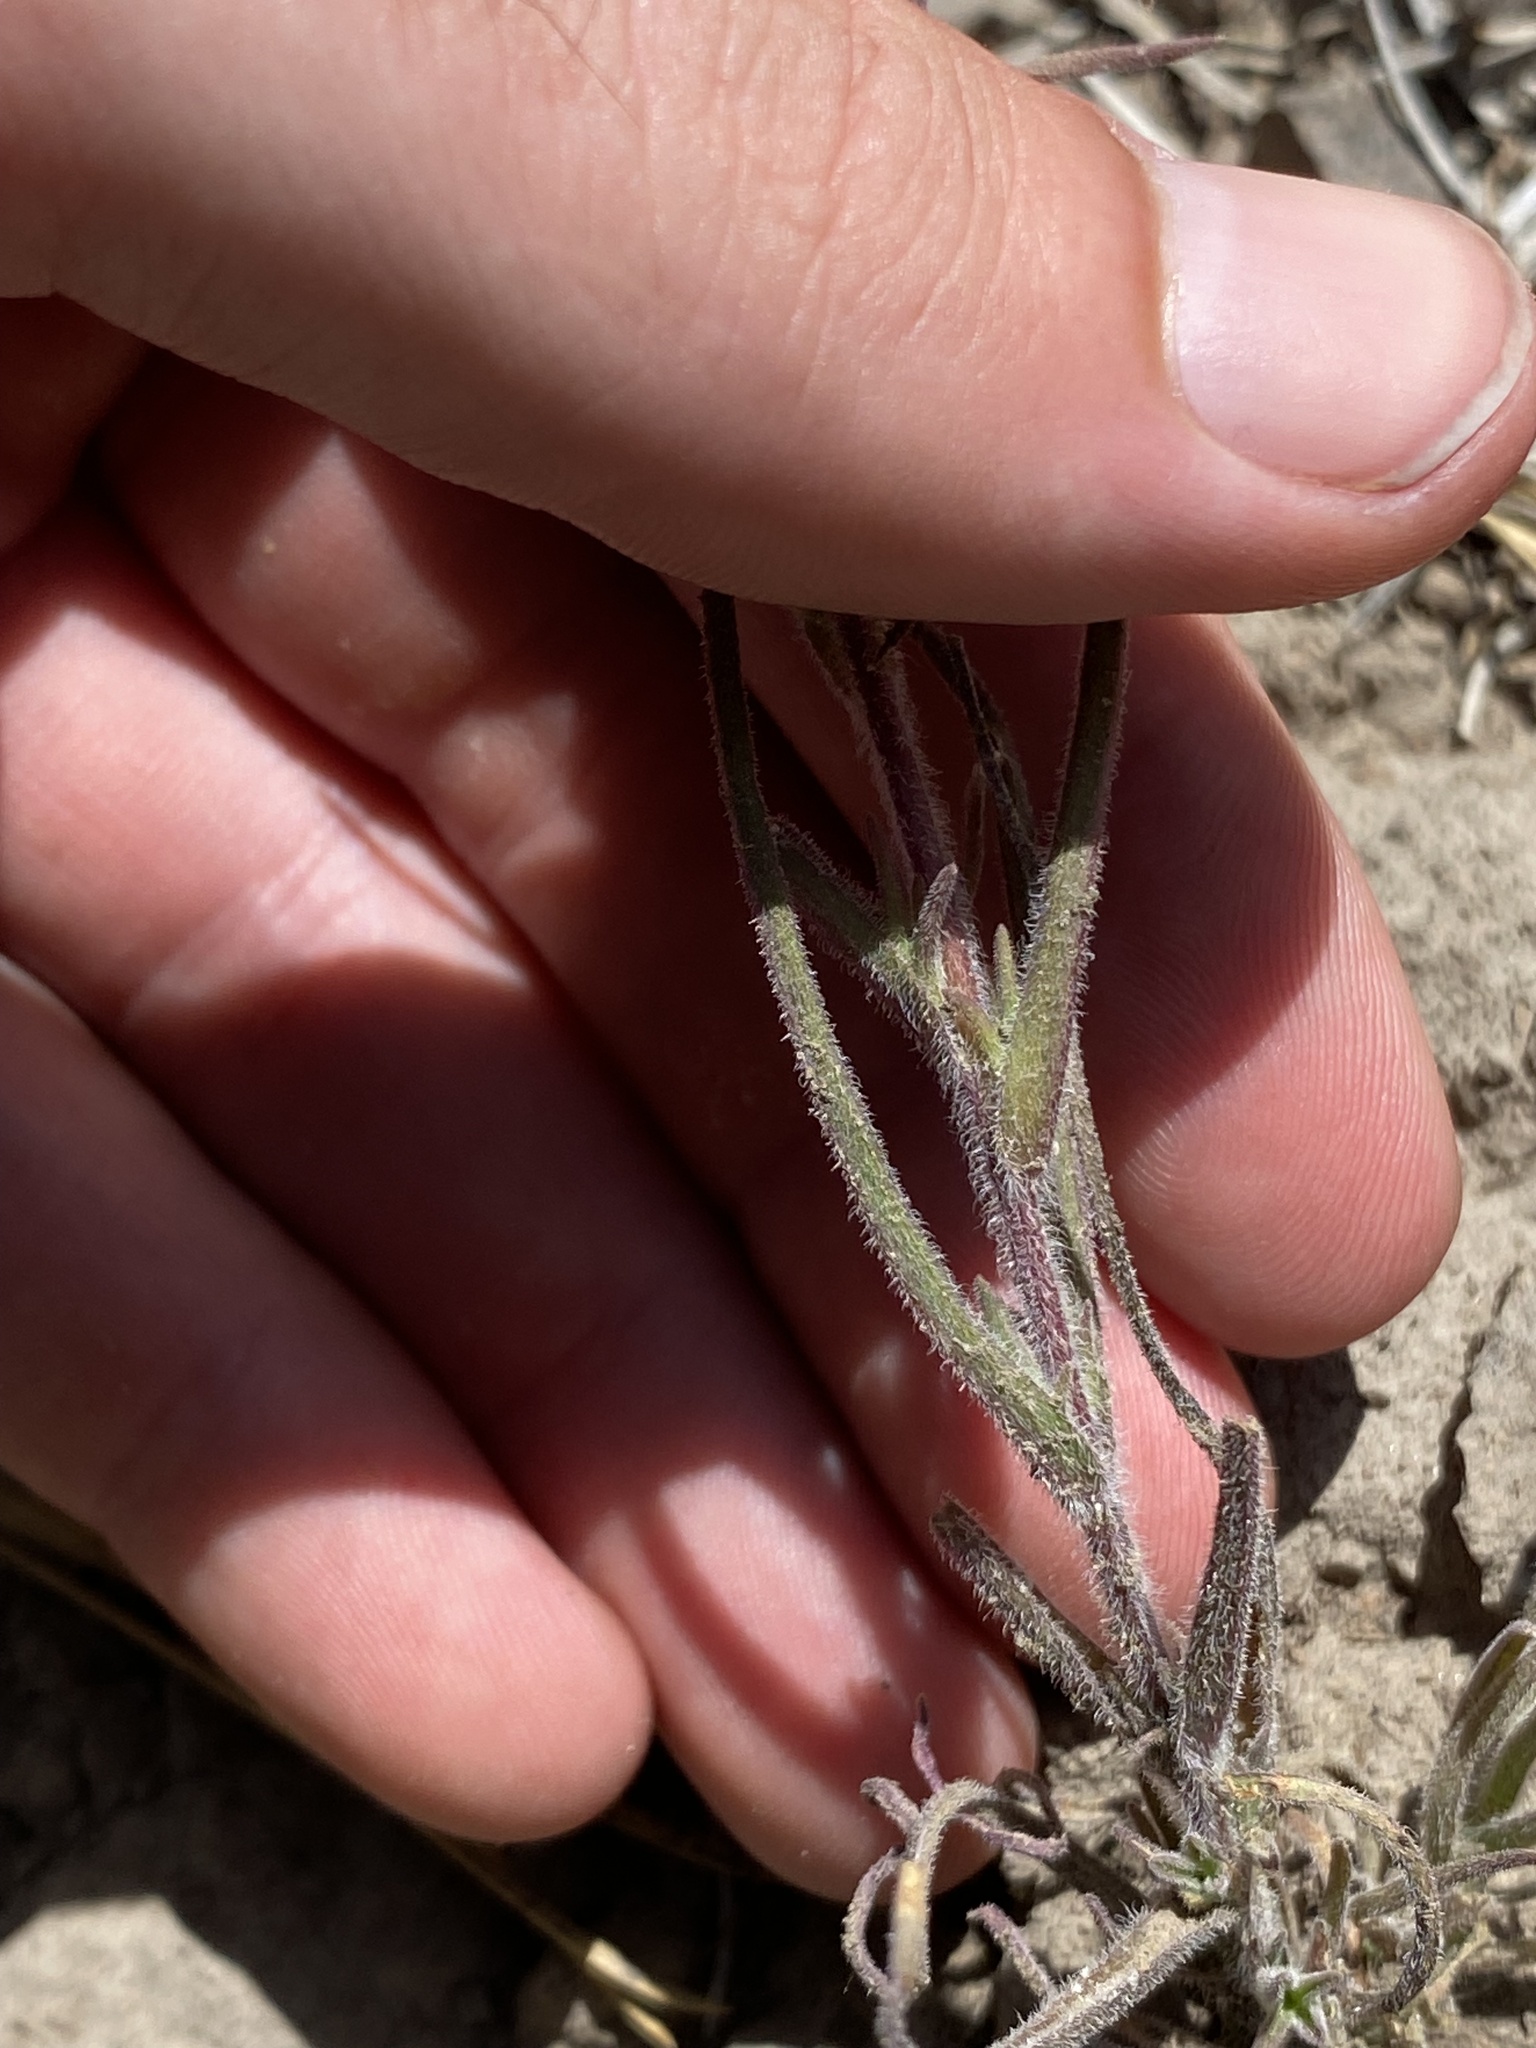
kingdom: Plantae
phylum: Tracheophyta
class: Magnoliopsida
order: Lamiales
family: Orobanchaceae
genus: Castilleja
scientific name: Castilleja pilosa
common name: Hairy paintbrush
